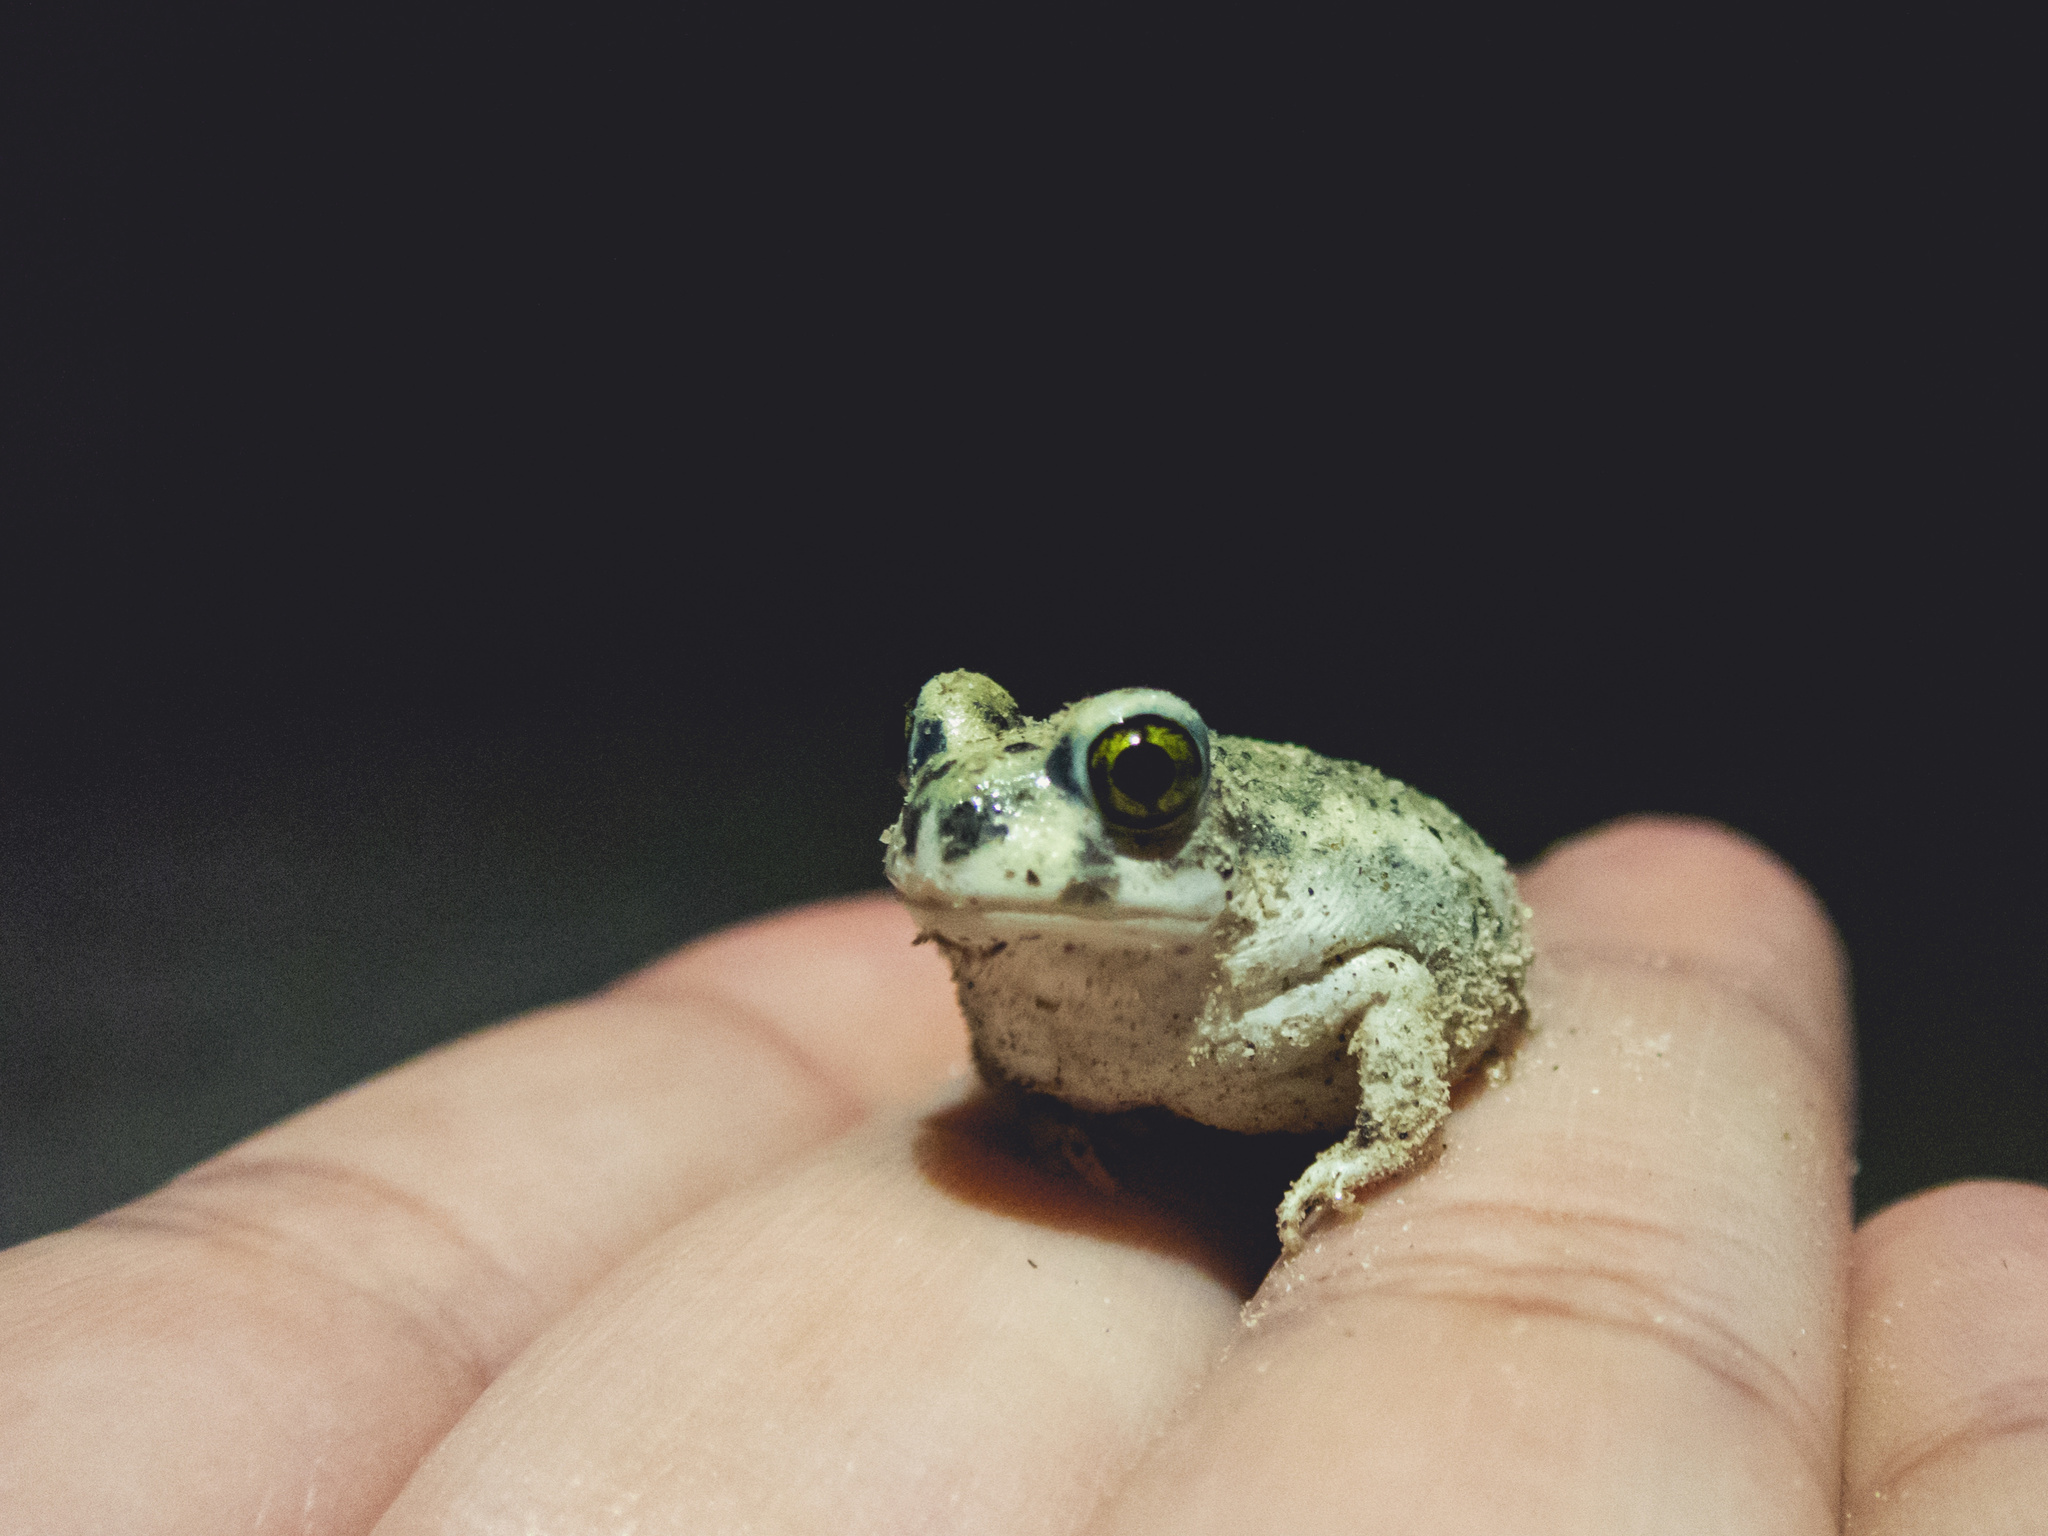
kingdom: Animalia
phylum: Chordata
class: Amphibia
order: Anura
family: Scaphiopodidae
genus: Scaphiopus
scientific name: Scaphiopus couchii
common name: Couch's spadefoot toad
